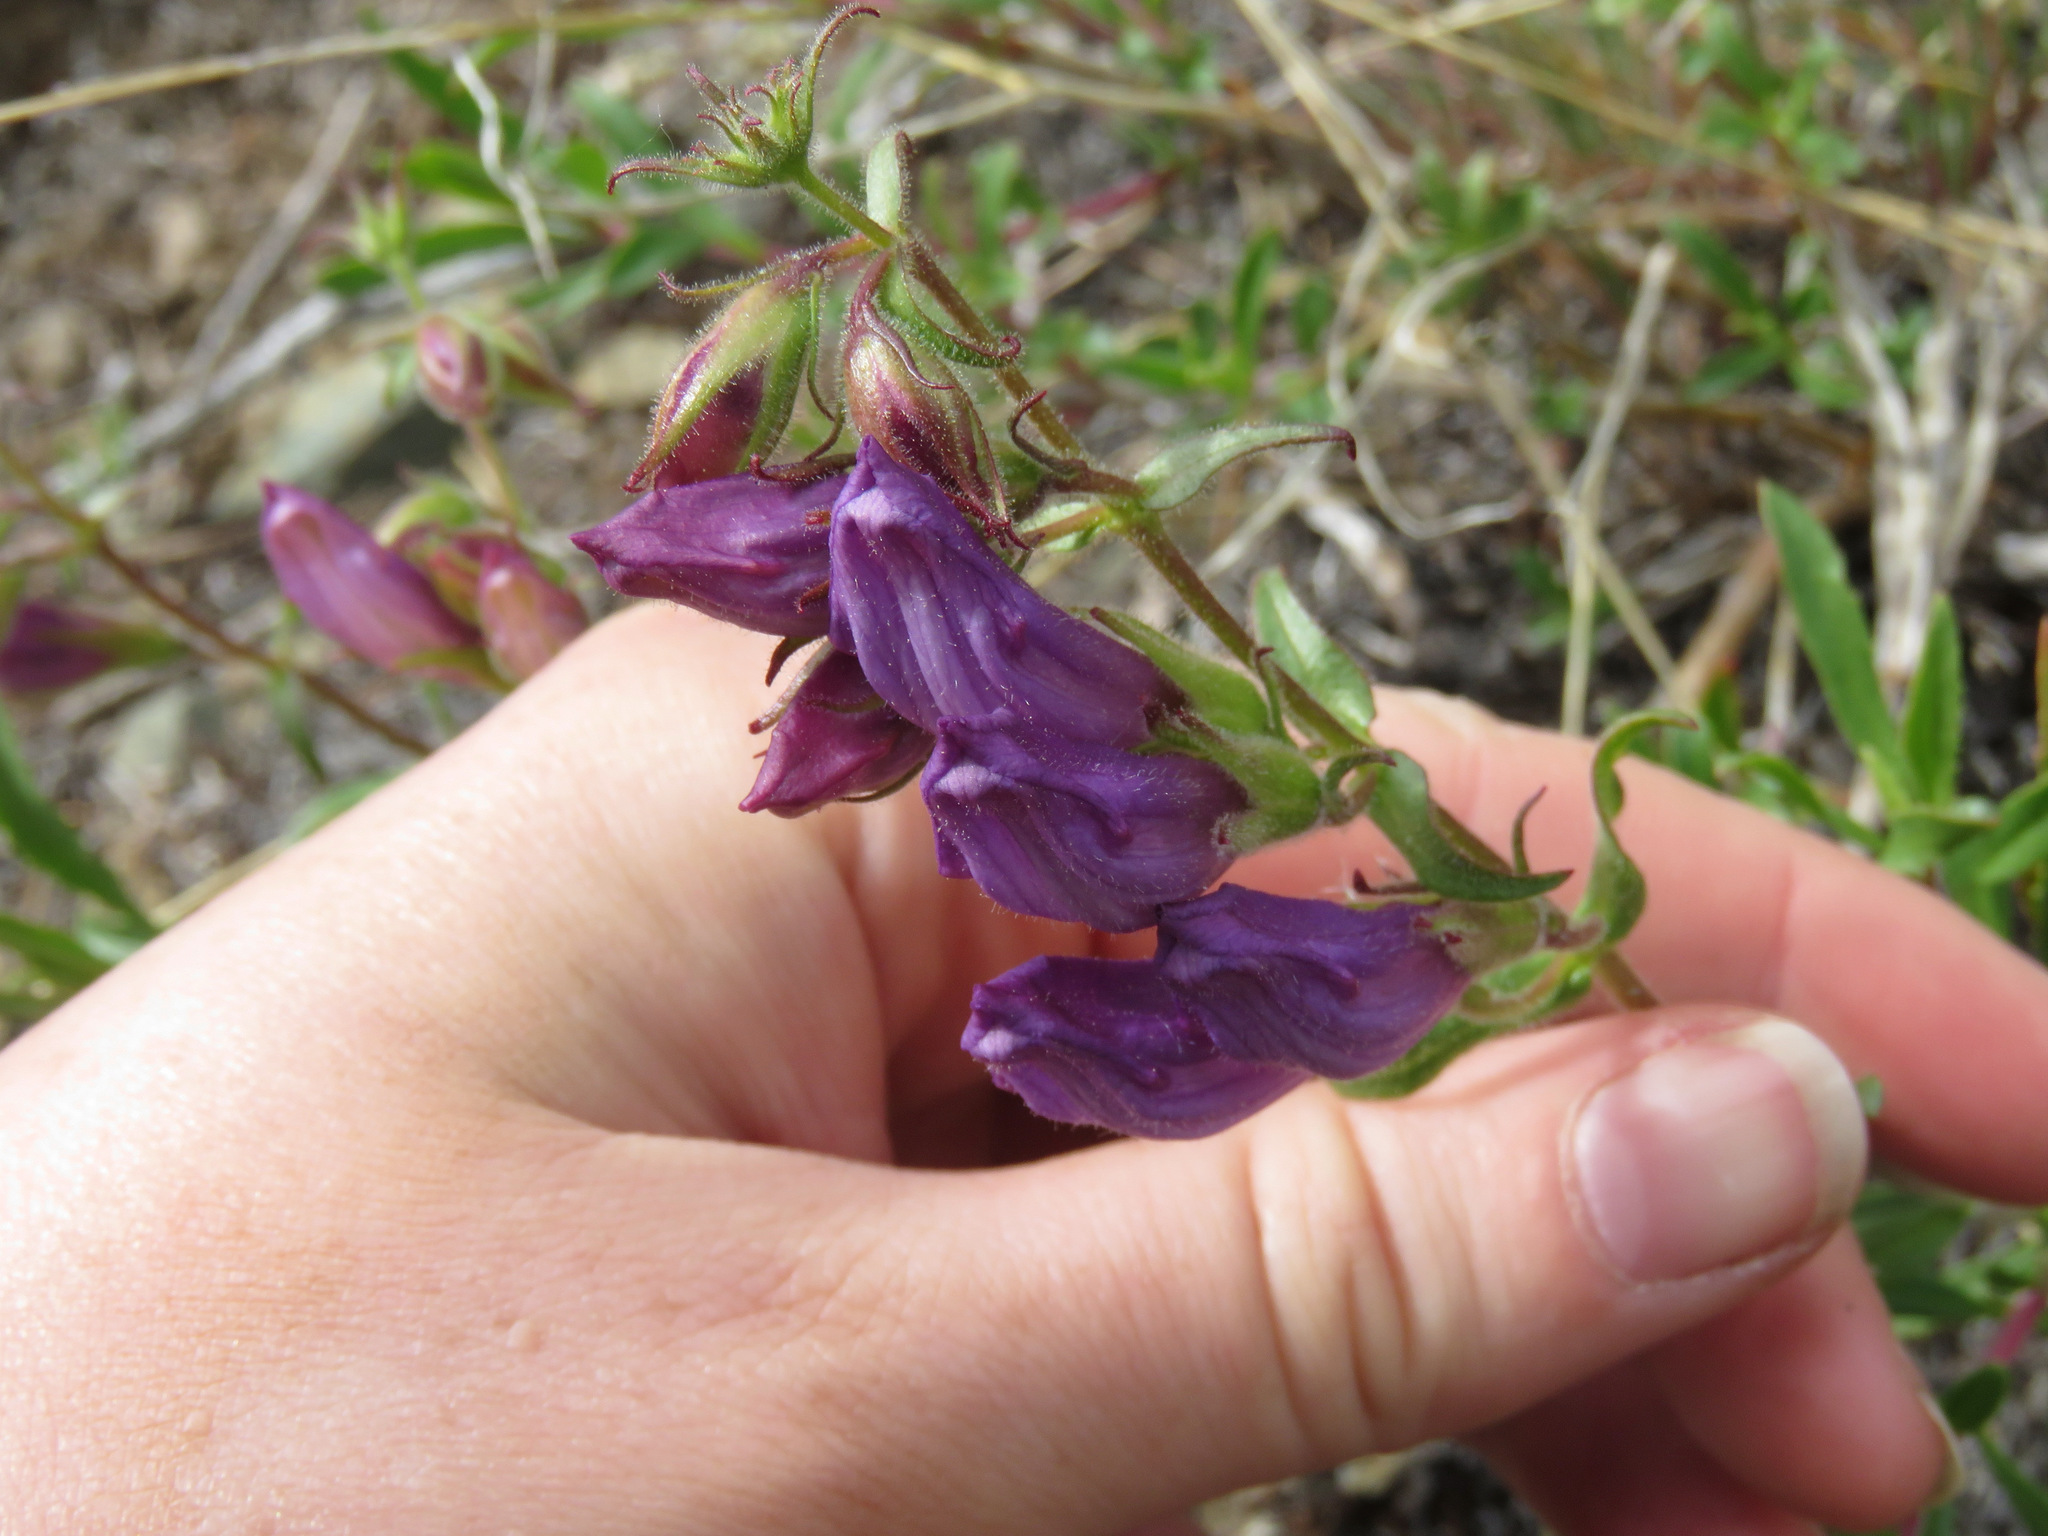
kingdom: Plantae
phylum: Tracheophyta
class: Magnoliopsida
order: Lamiales
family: Plantaginaceae
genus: Penstemon
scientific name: Penstemon fruticosus
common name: Bush penstemon
